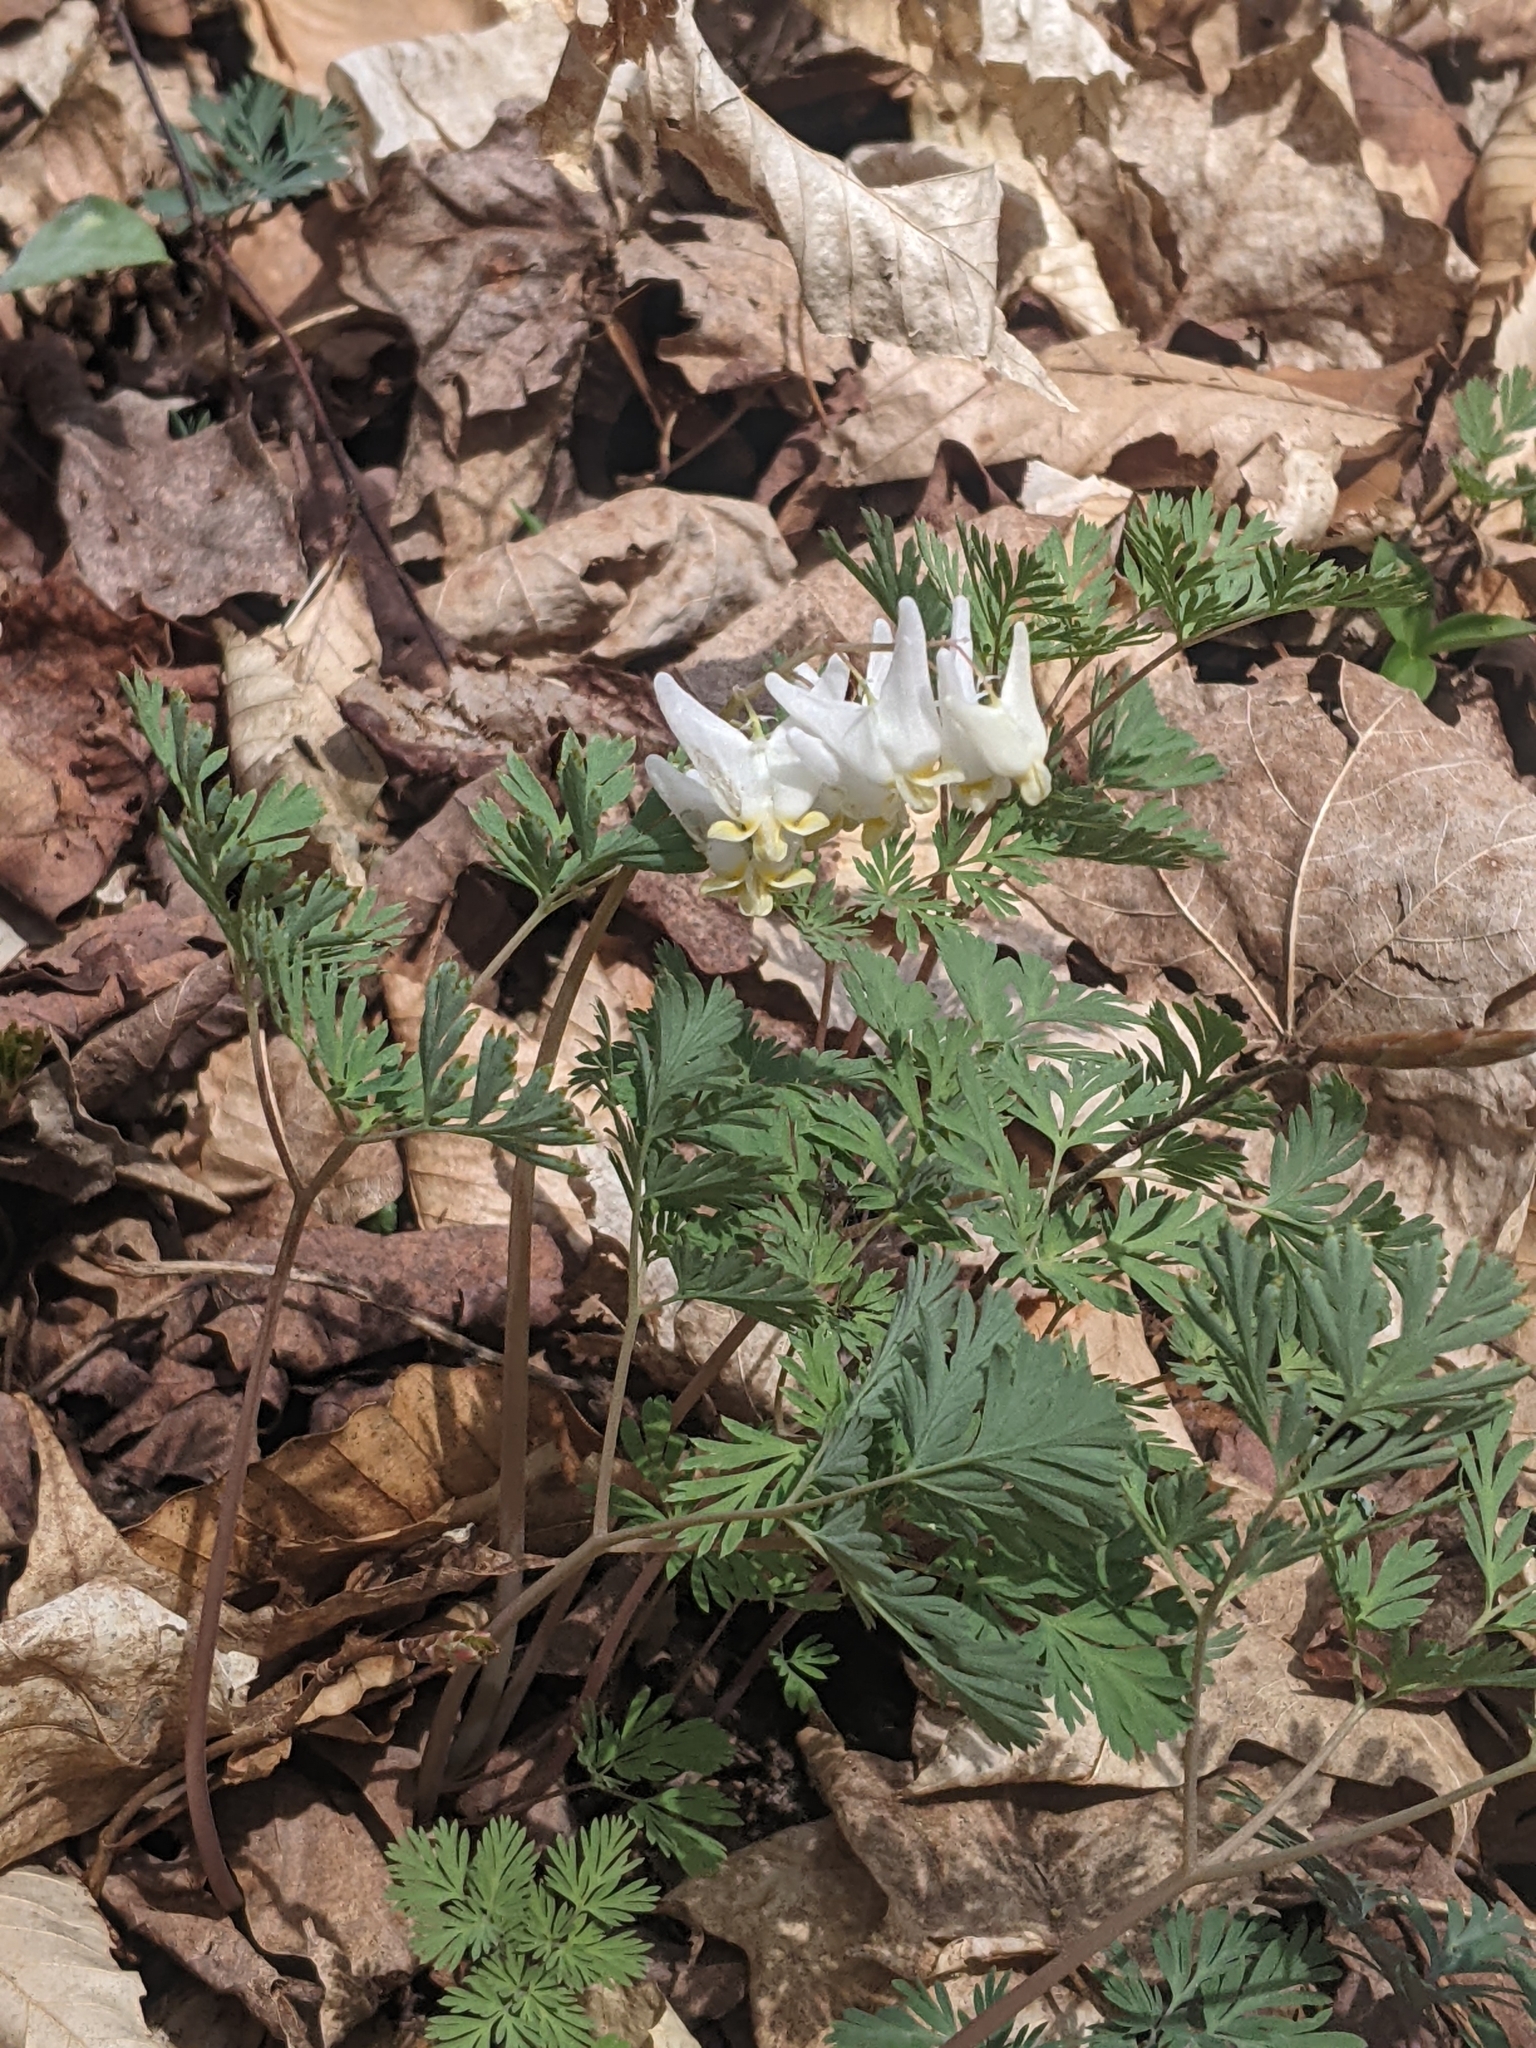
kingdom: Plantae
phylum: Tracheophyta
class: Magnoliopsida
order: Ranunculales
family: Papaveraceae
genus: Dicentra
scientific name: Dicentra cucullaria
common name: Dutchman's breeches
